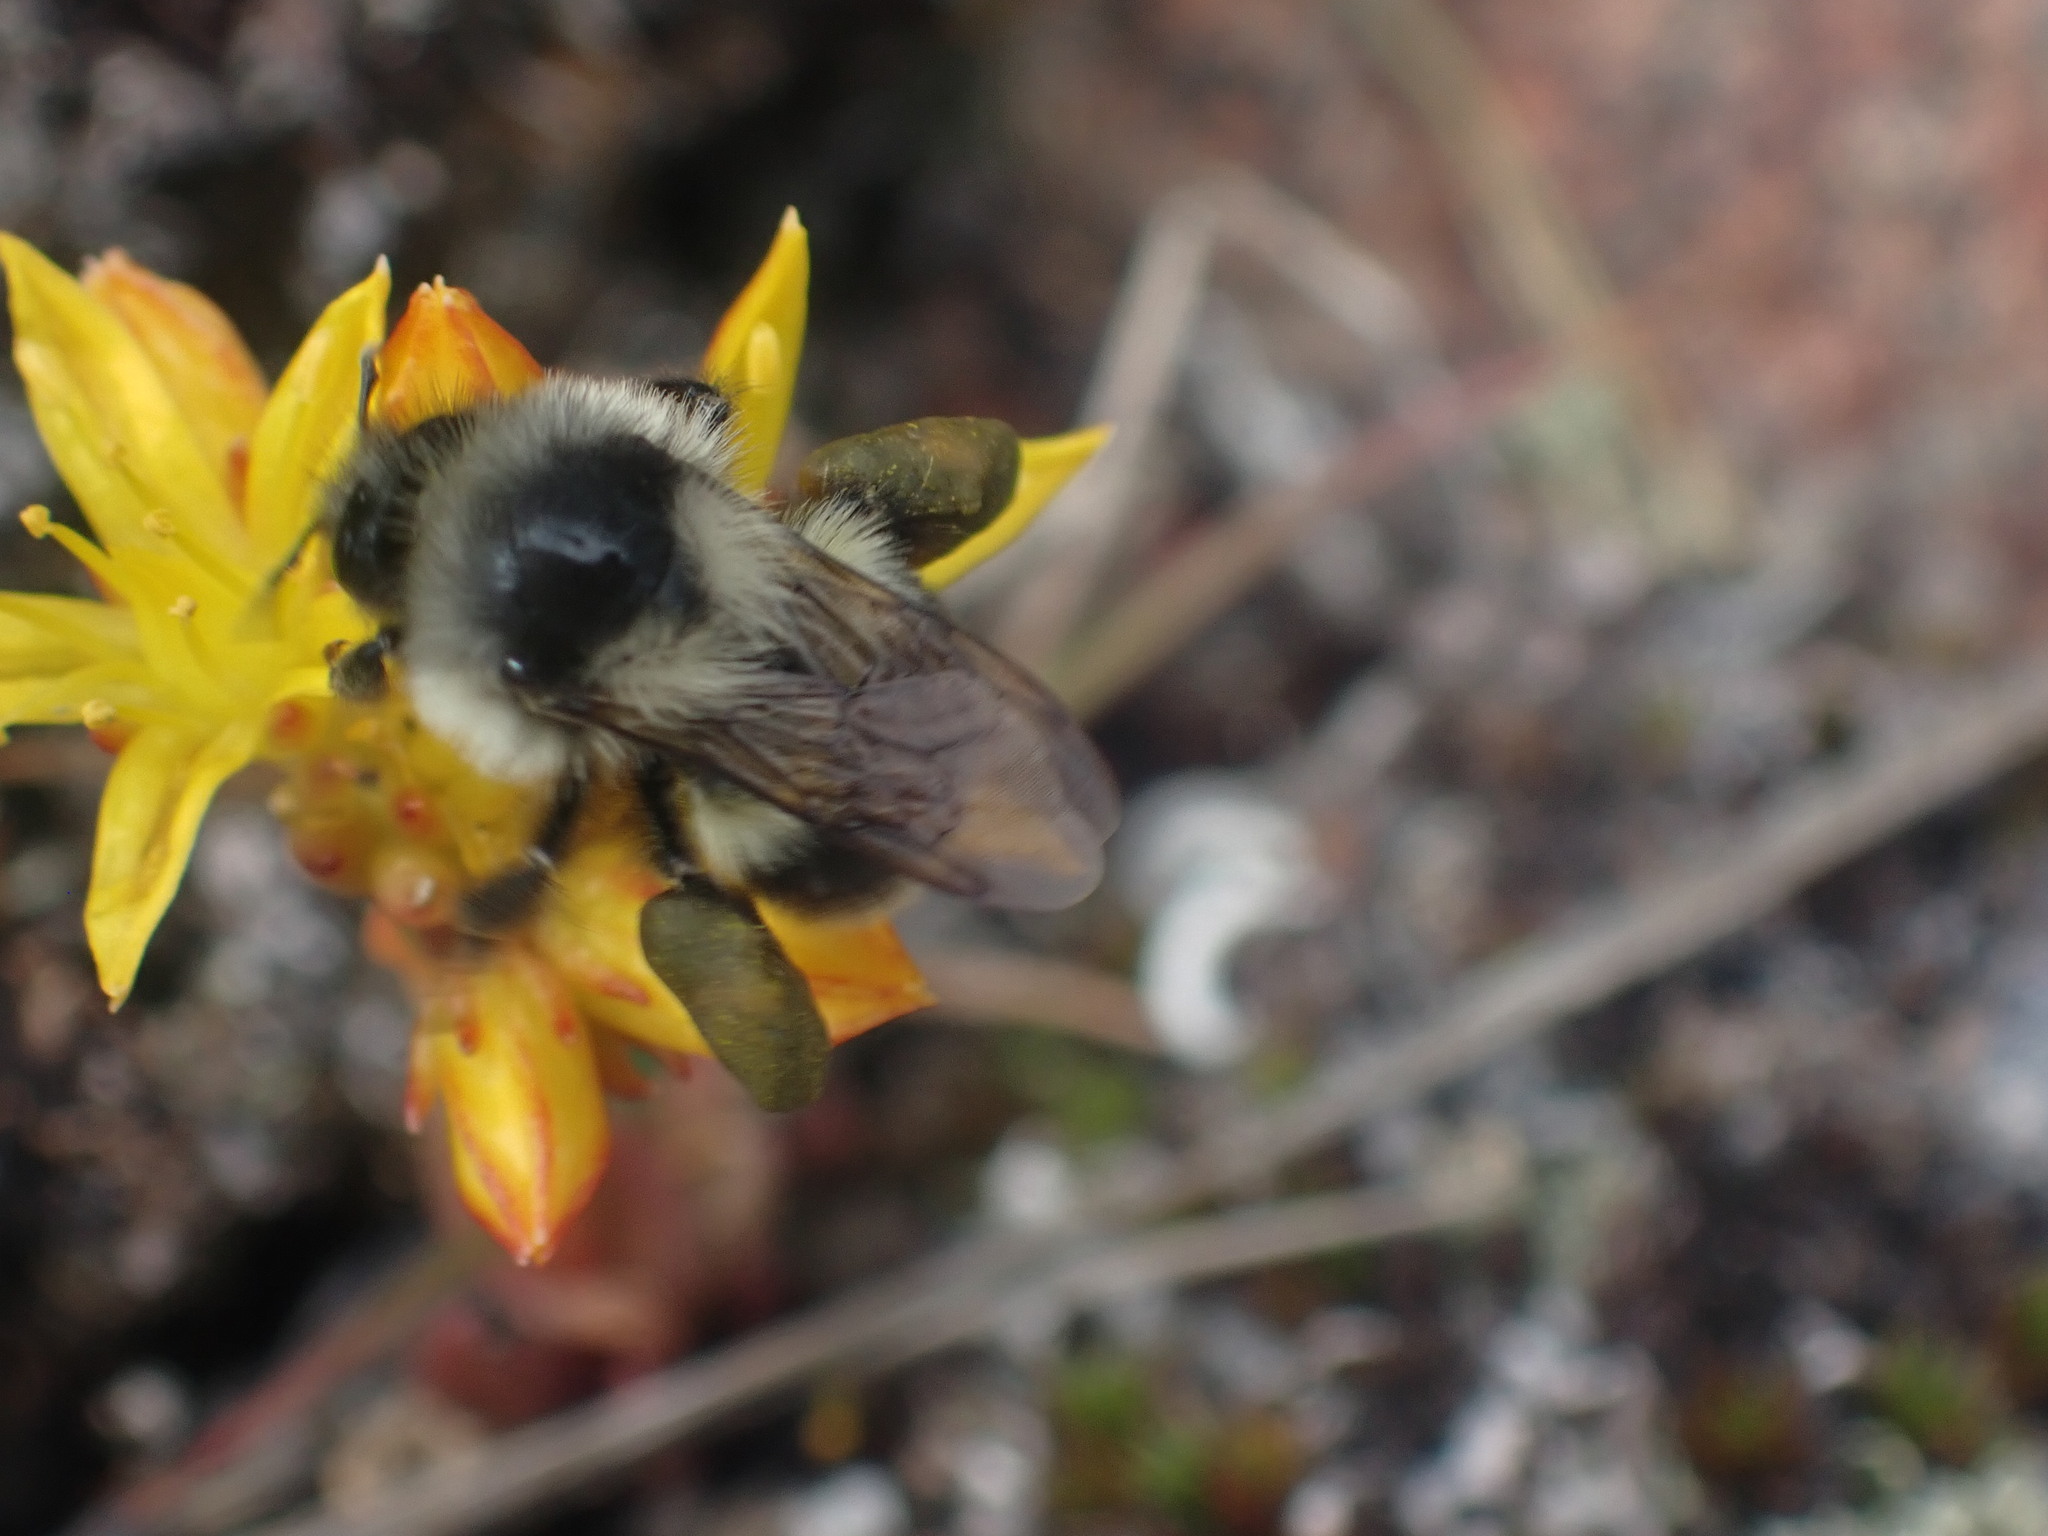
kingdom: Animalia
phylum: Arthropoda
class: Insecta
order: Hymenoptera
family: Apidae
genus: Bombus
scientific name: Bombus vancouverensis
